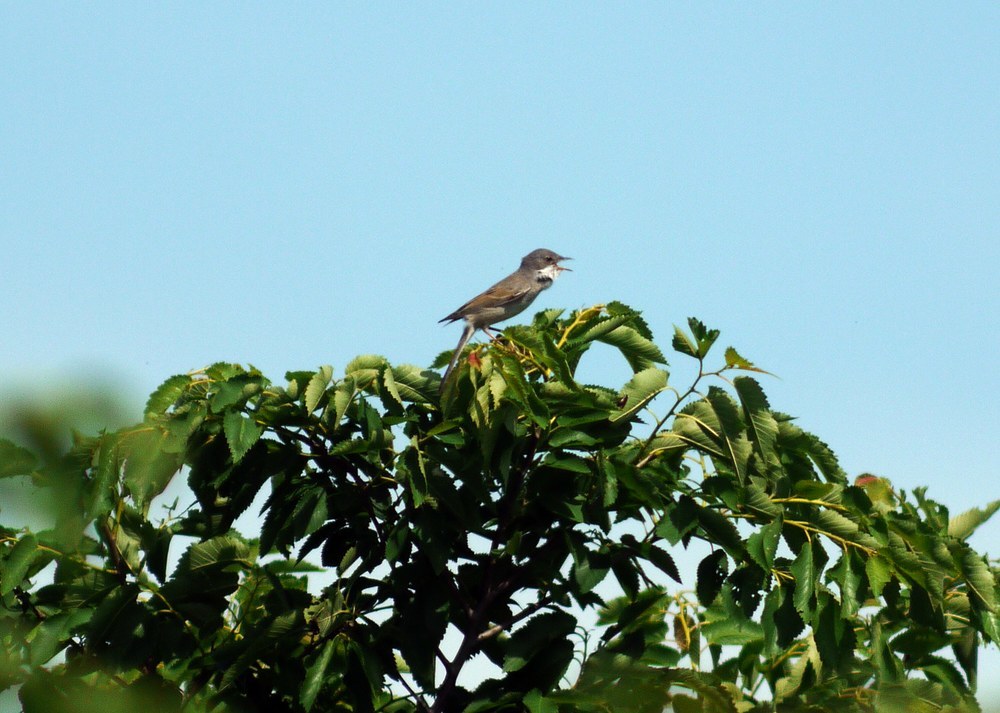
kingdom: Animalia
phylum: Chordata
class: Aves
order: Passeriformes
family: Sylviidae
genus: Sylvia
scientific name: Sylvia communis
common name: Common whitethroat
